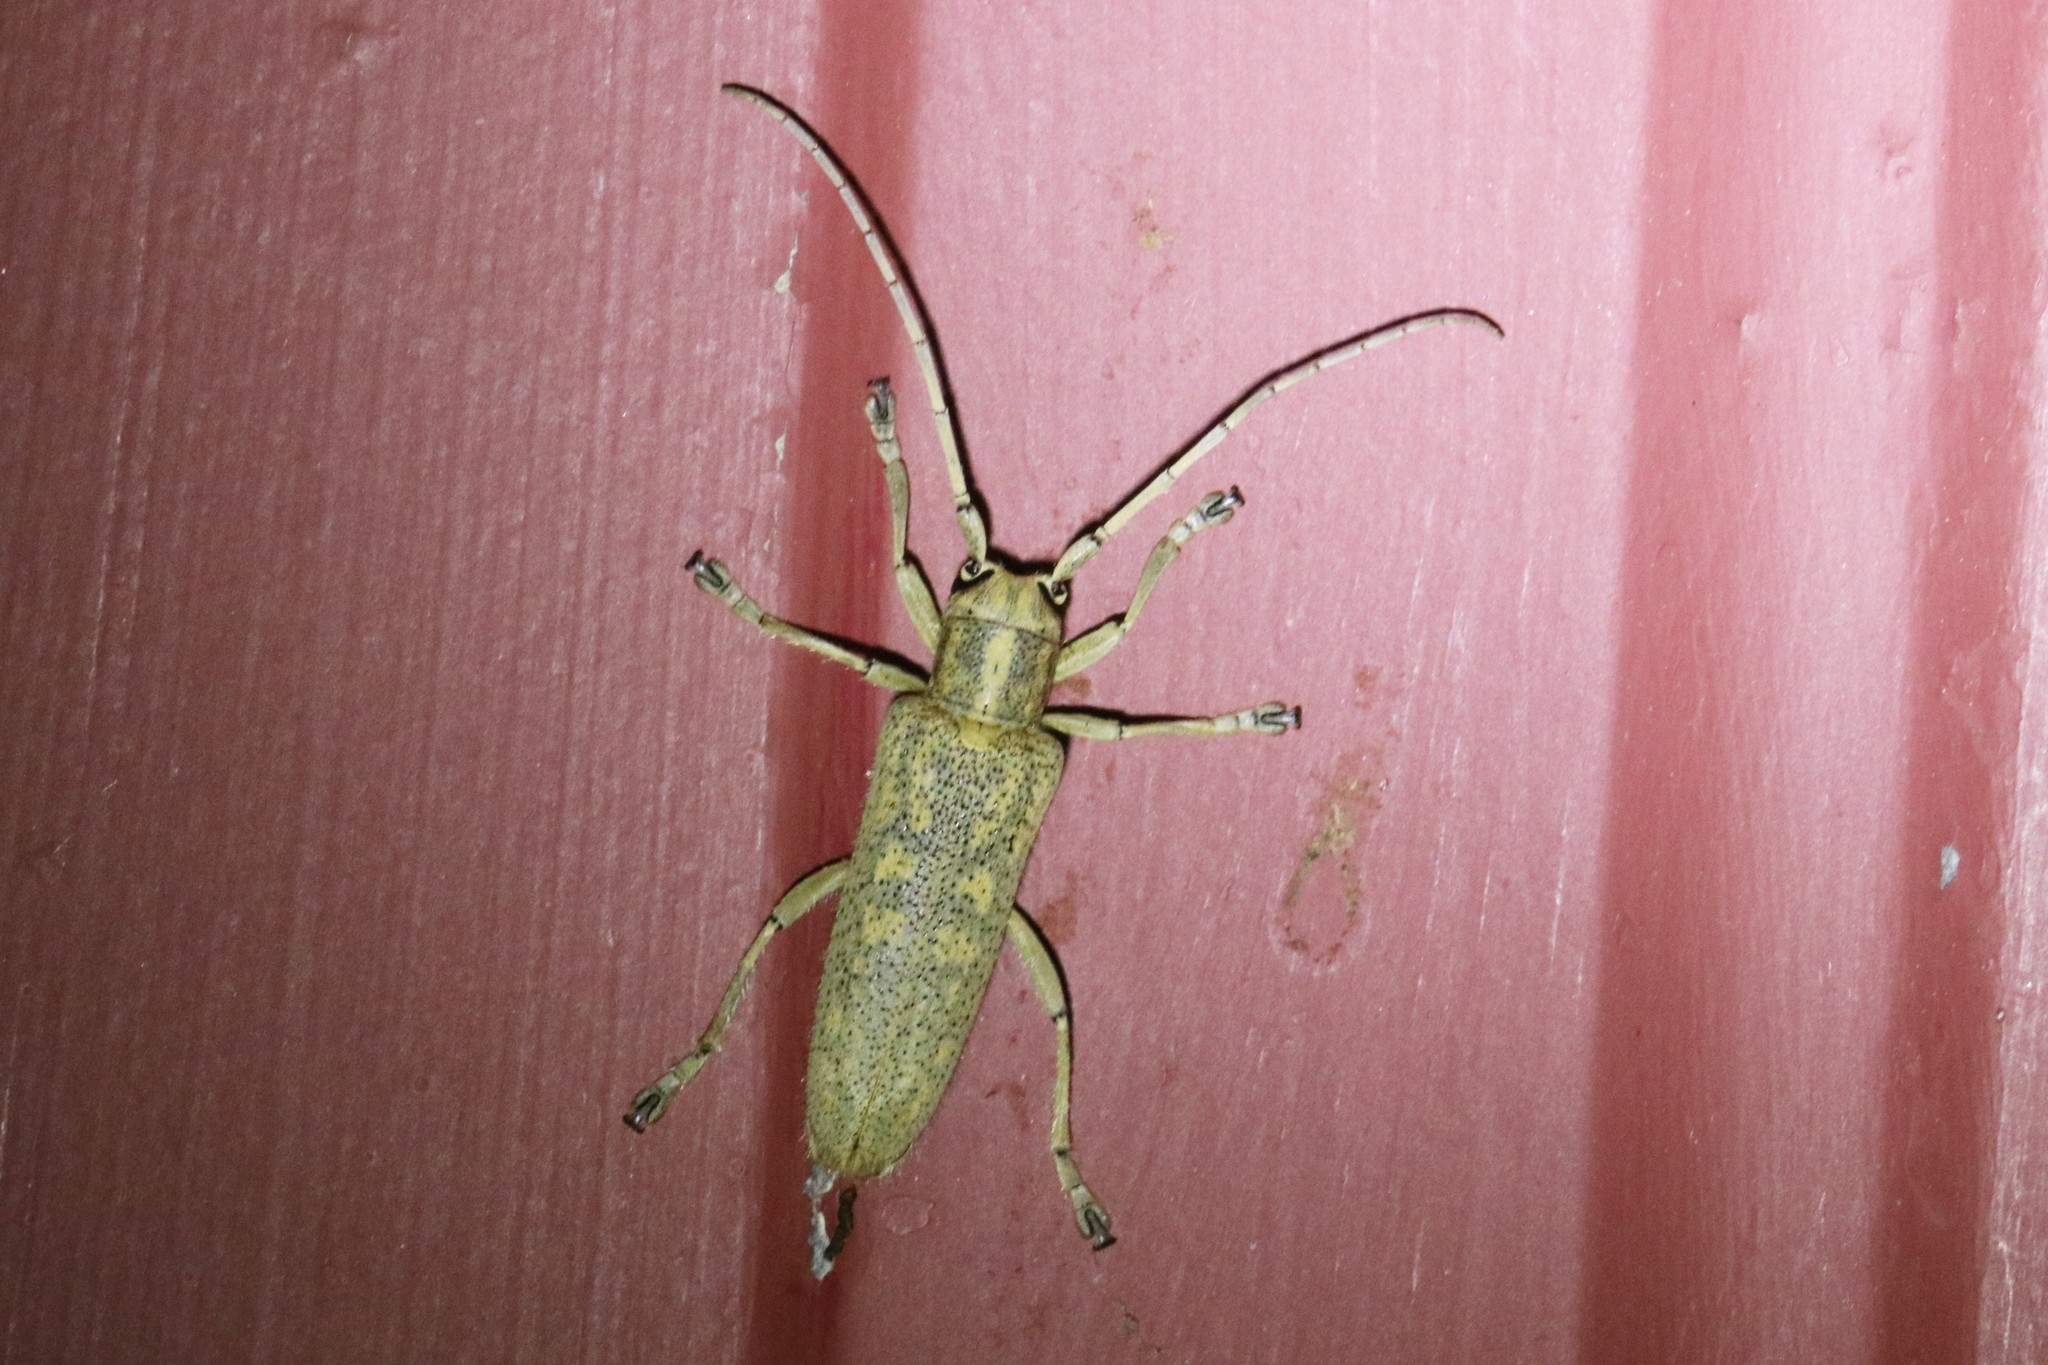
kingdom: Animalia
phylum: Arthropoda
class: Insecta
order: Coleoptera
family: Cerambycidae
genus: Saperda
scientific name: Saperda calcarata
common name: Poplar borer
